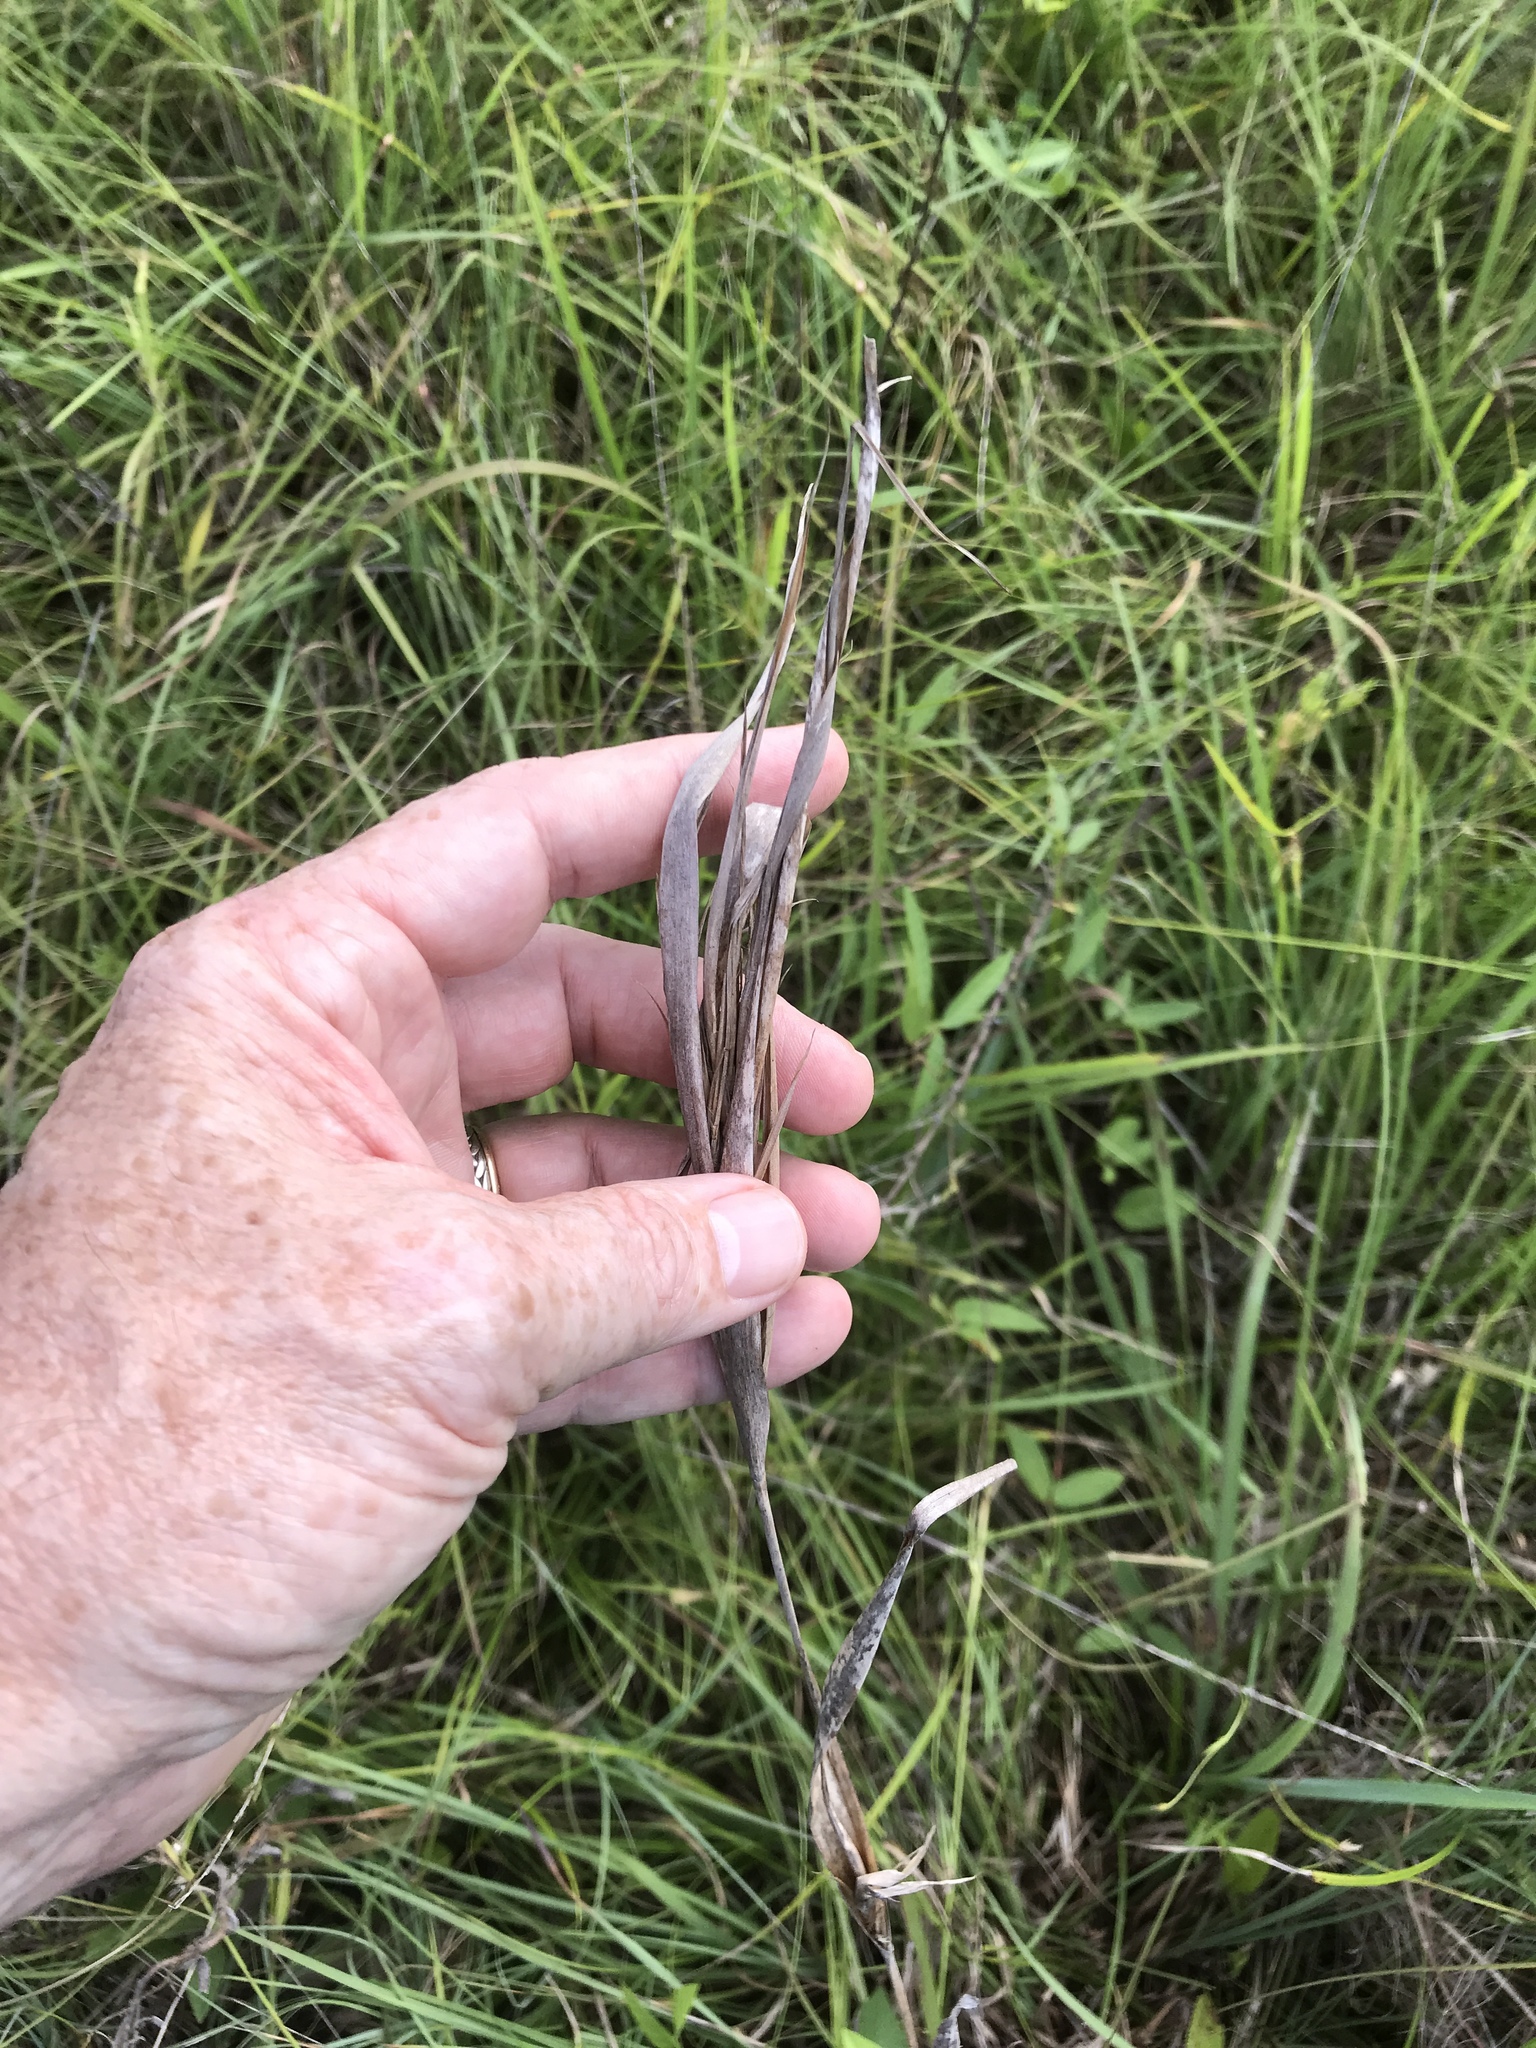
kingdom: Plantae
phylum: Tracheophyta
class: Liliopsida
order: Poales
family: Poaceae
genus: Andropogon
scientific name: Andropogon gyrans
